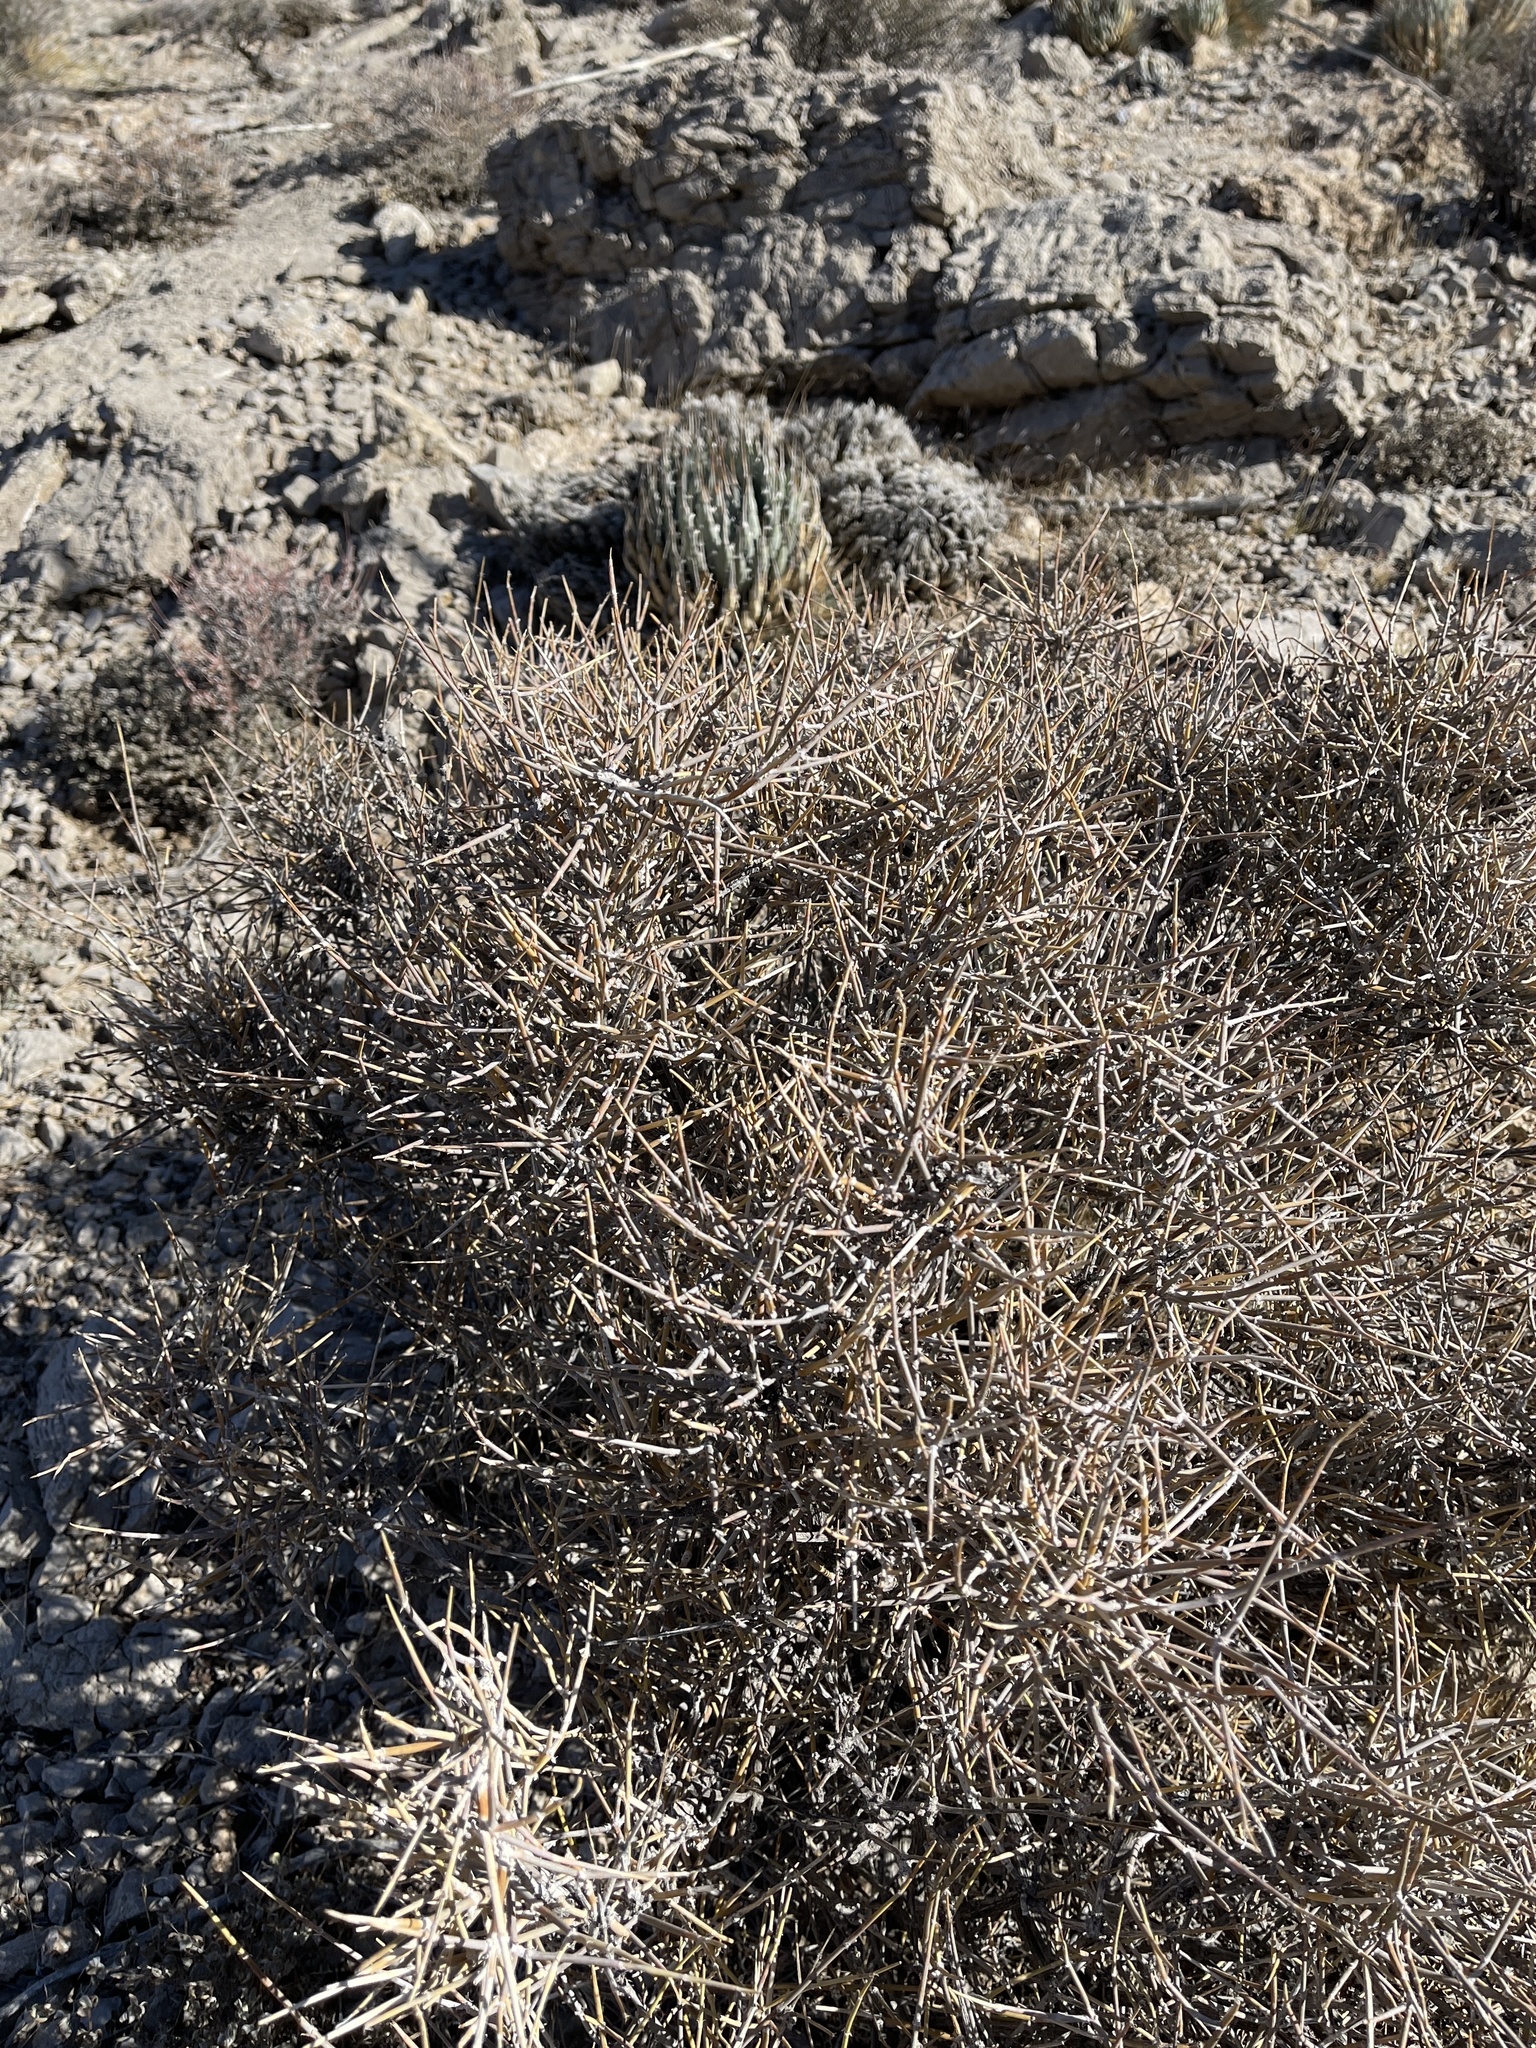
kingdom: Plantae
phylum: Tracheophyta
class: Gnetopsida
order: Ephedrales
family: Ephedraceae
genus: Ephedra
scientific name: Ephedra nevadensis
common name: Gray ephedra
